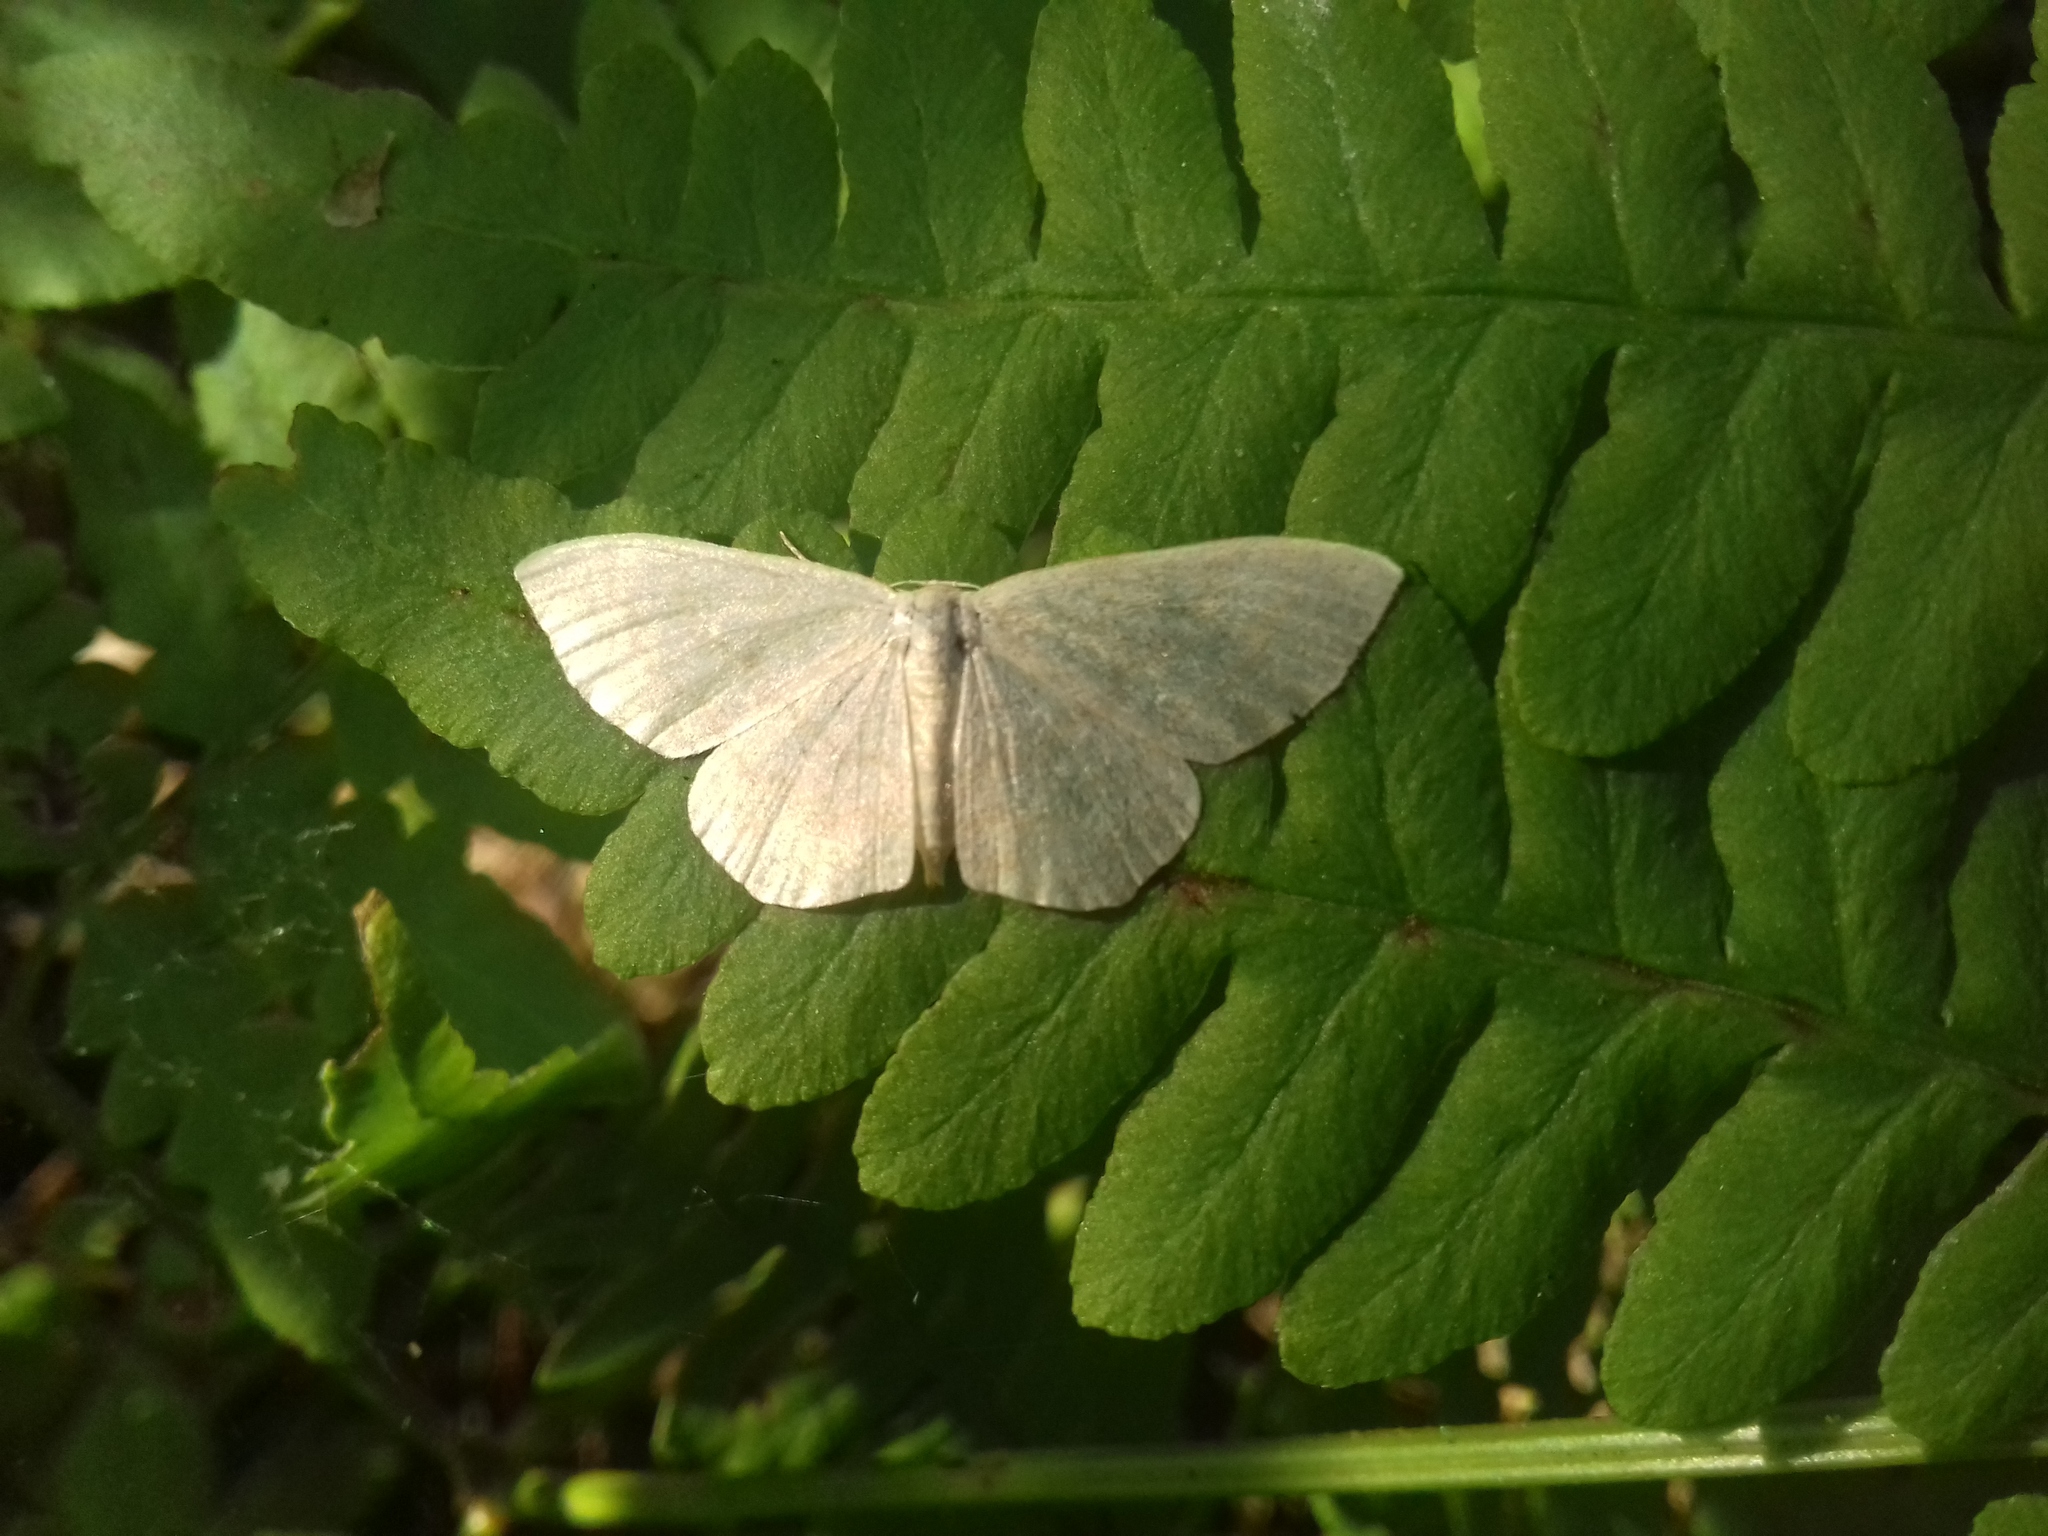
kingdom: Animalia
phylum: Arthropoda
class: Insecta
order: Lepidoptera
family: Geometridae
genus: Scopula
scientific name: Scopula floslactata
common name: Cream wave
